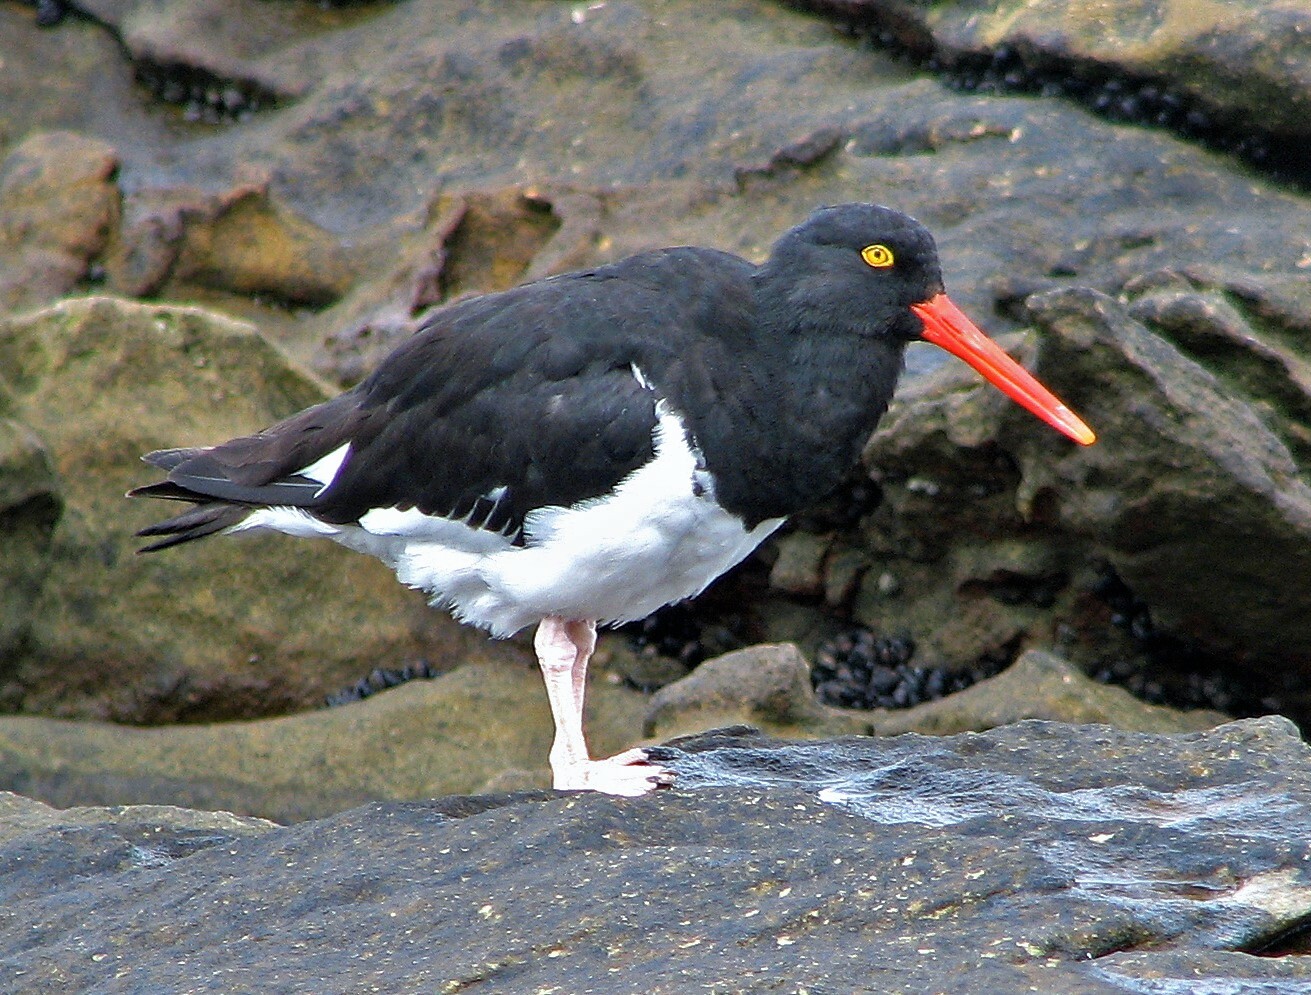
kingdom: Animalia
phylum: Chordata
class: Aves
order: Charadriiformes
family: Haematopodidae
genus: Haematopus
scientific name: Haematopus leucopodus
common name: Magellanic oystercatcher
